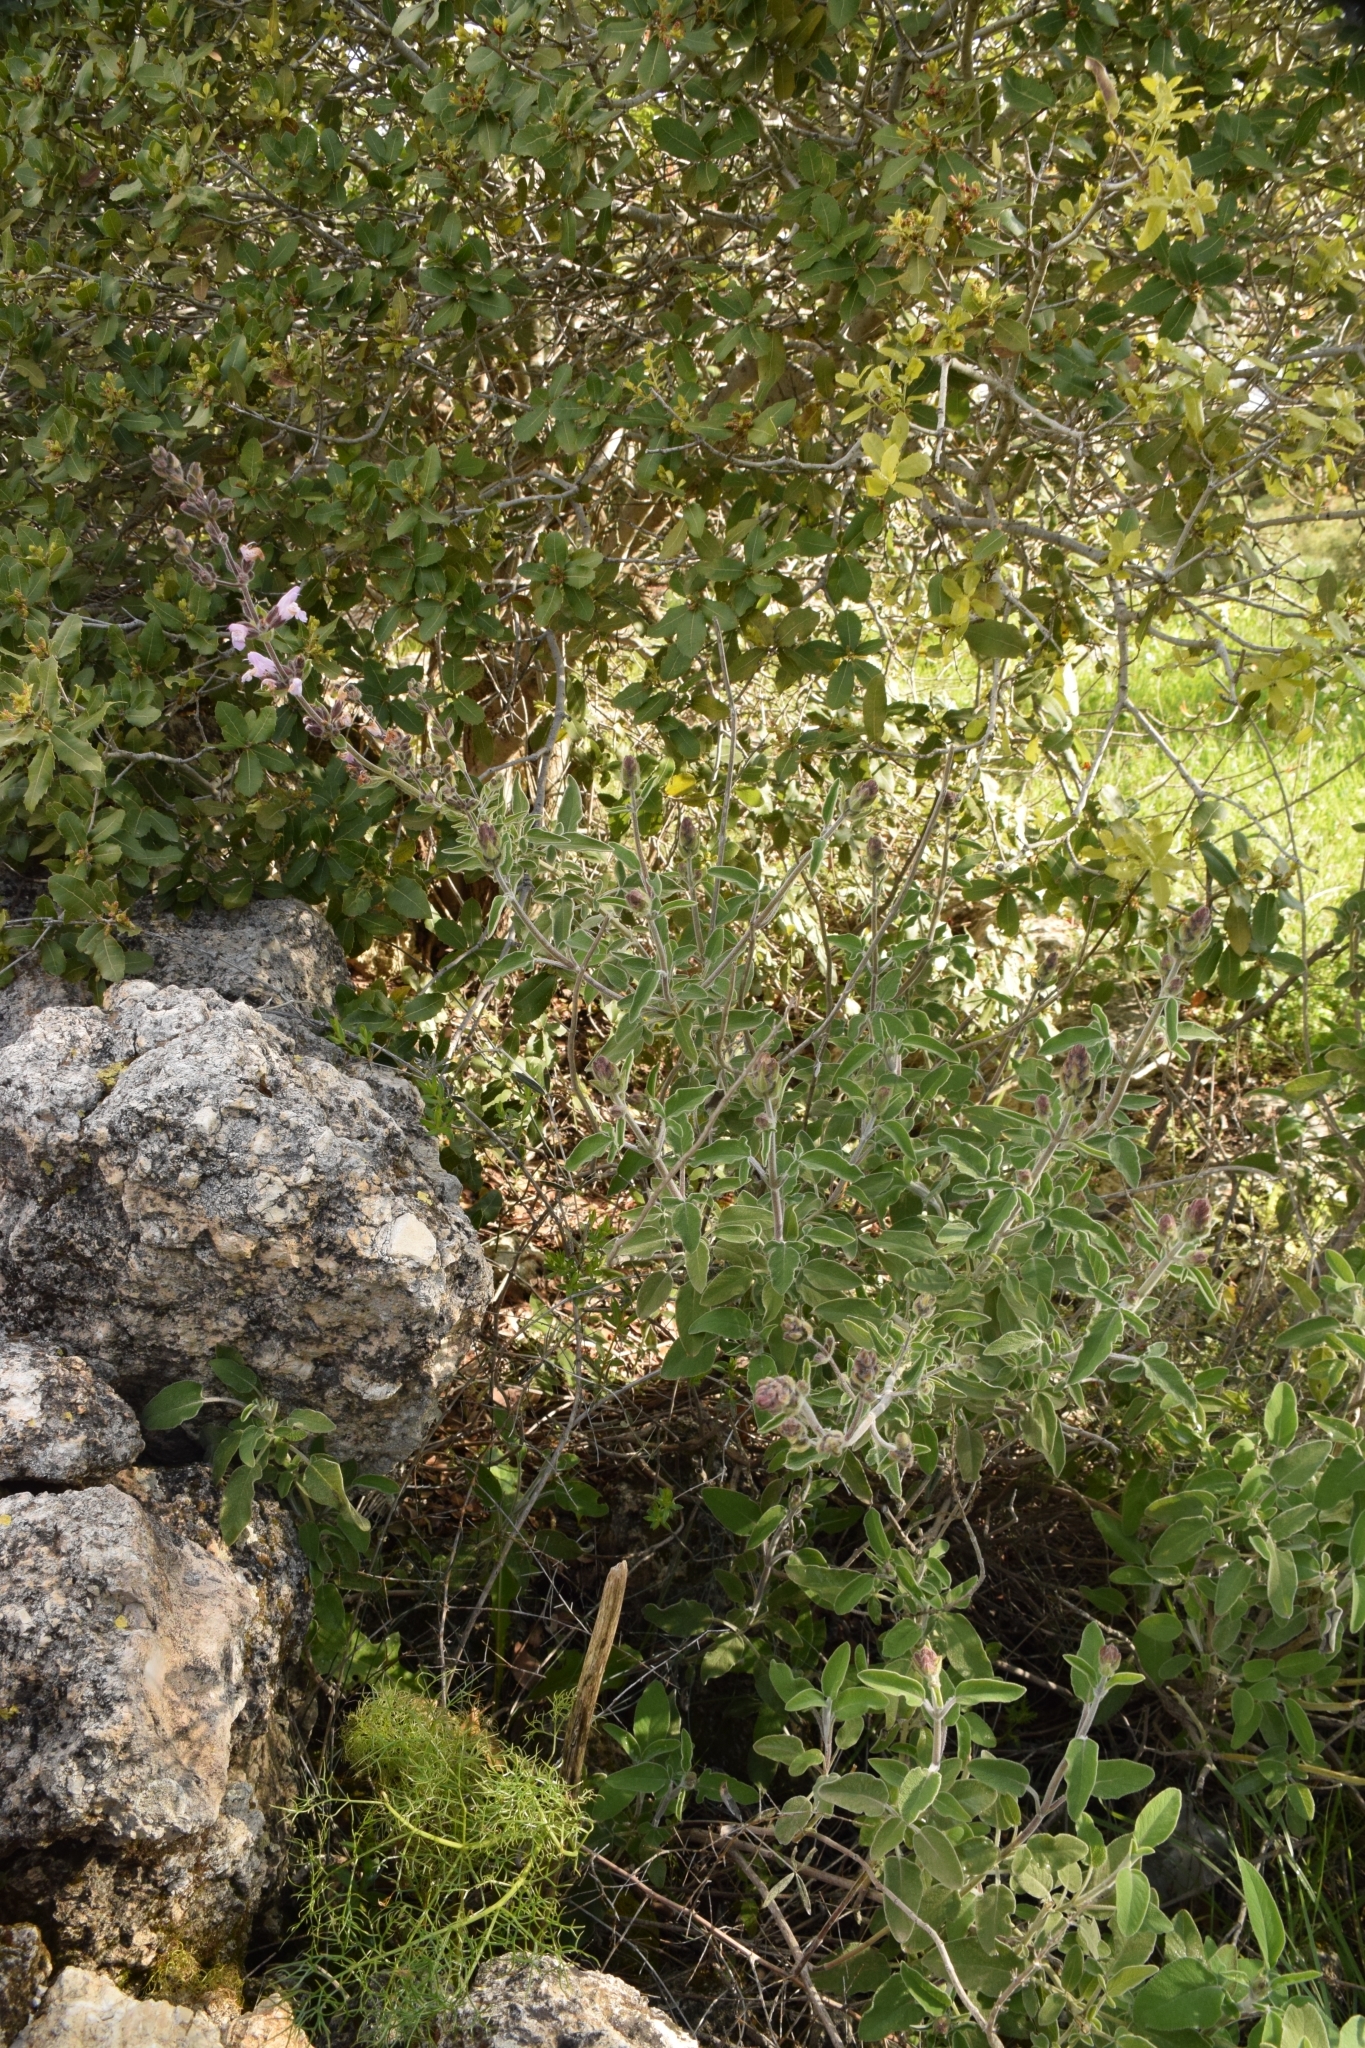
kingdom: Plantae
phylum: Tracheophyta
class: Magnoliopsida
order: Lamiales
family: Lamiaceae
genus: Salvia
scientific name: Salvia fruticosa
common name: Greek sage
